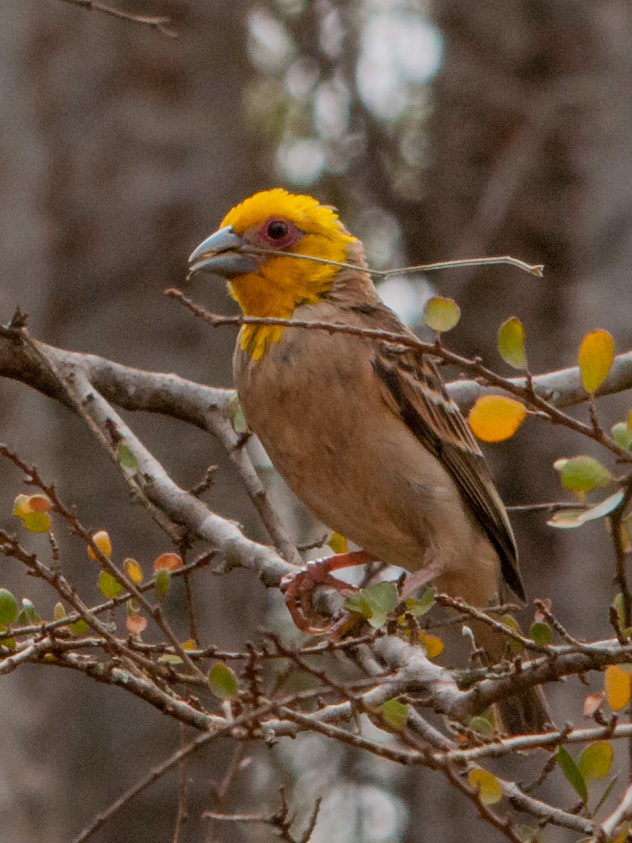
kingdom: Animalia
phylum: Chordata
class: Aves
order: Passeriformes
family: Ploceidae
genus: Ploceus
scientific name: Ploceus sakalava
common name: Sakalava weaver
